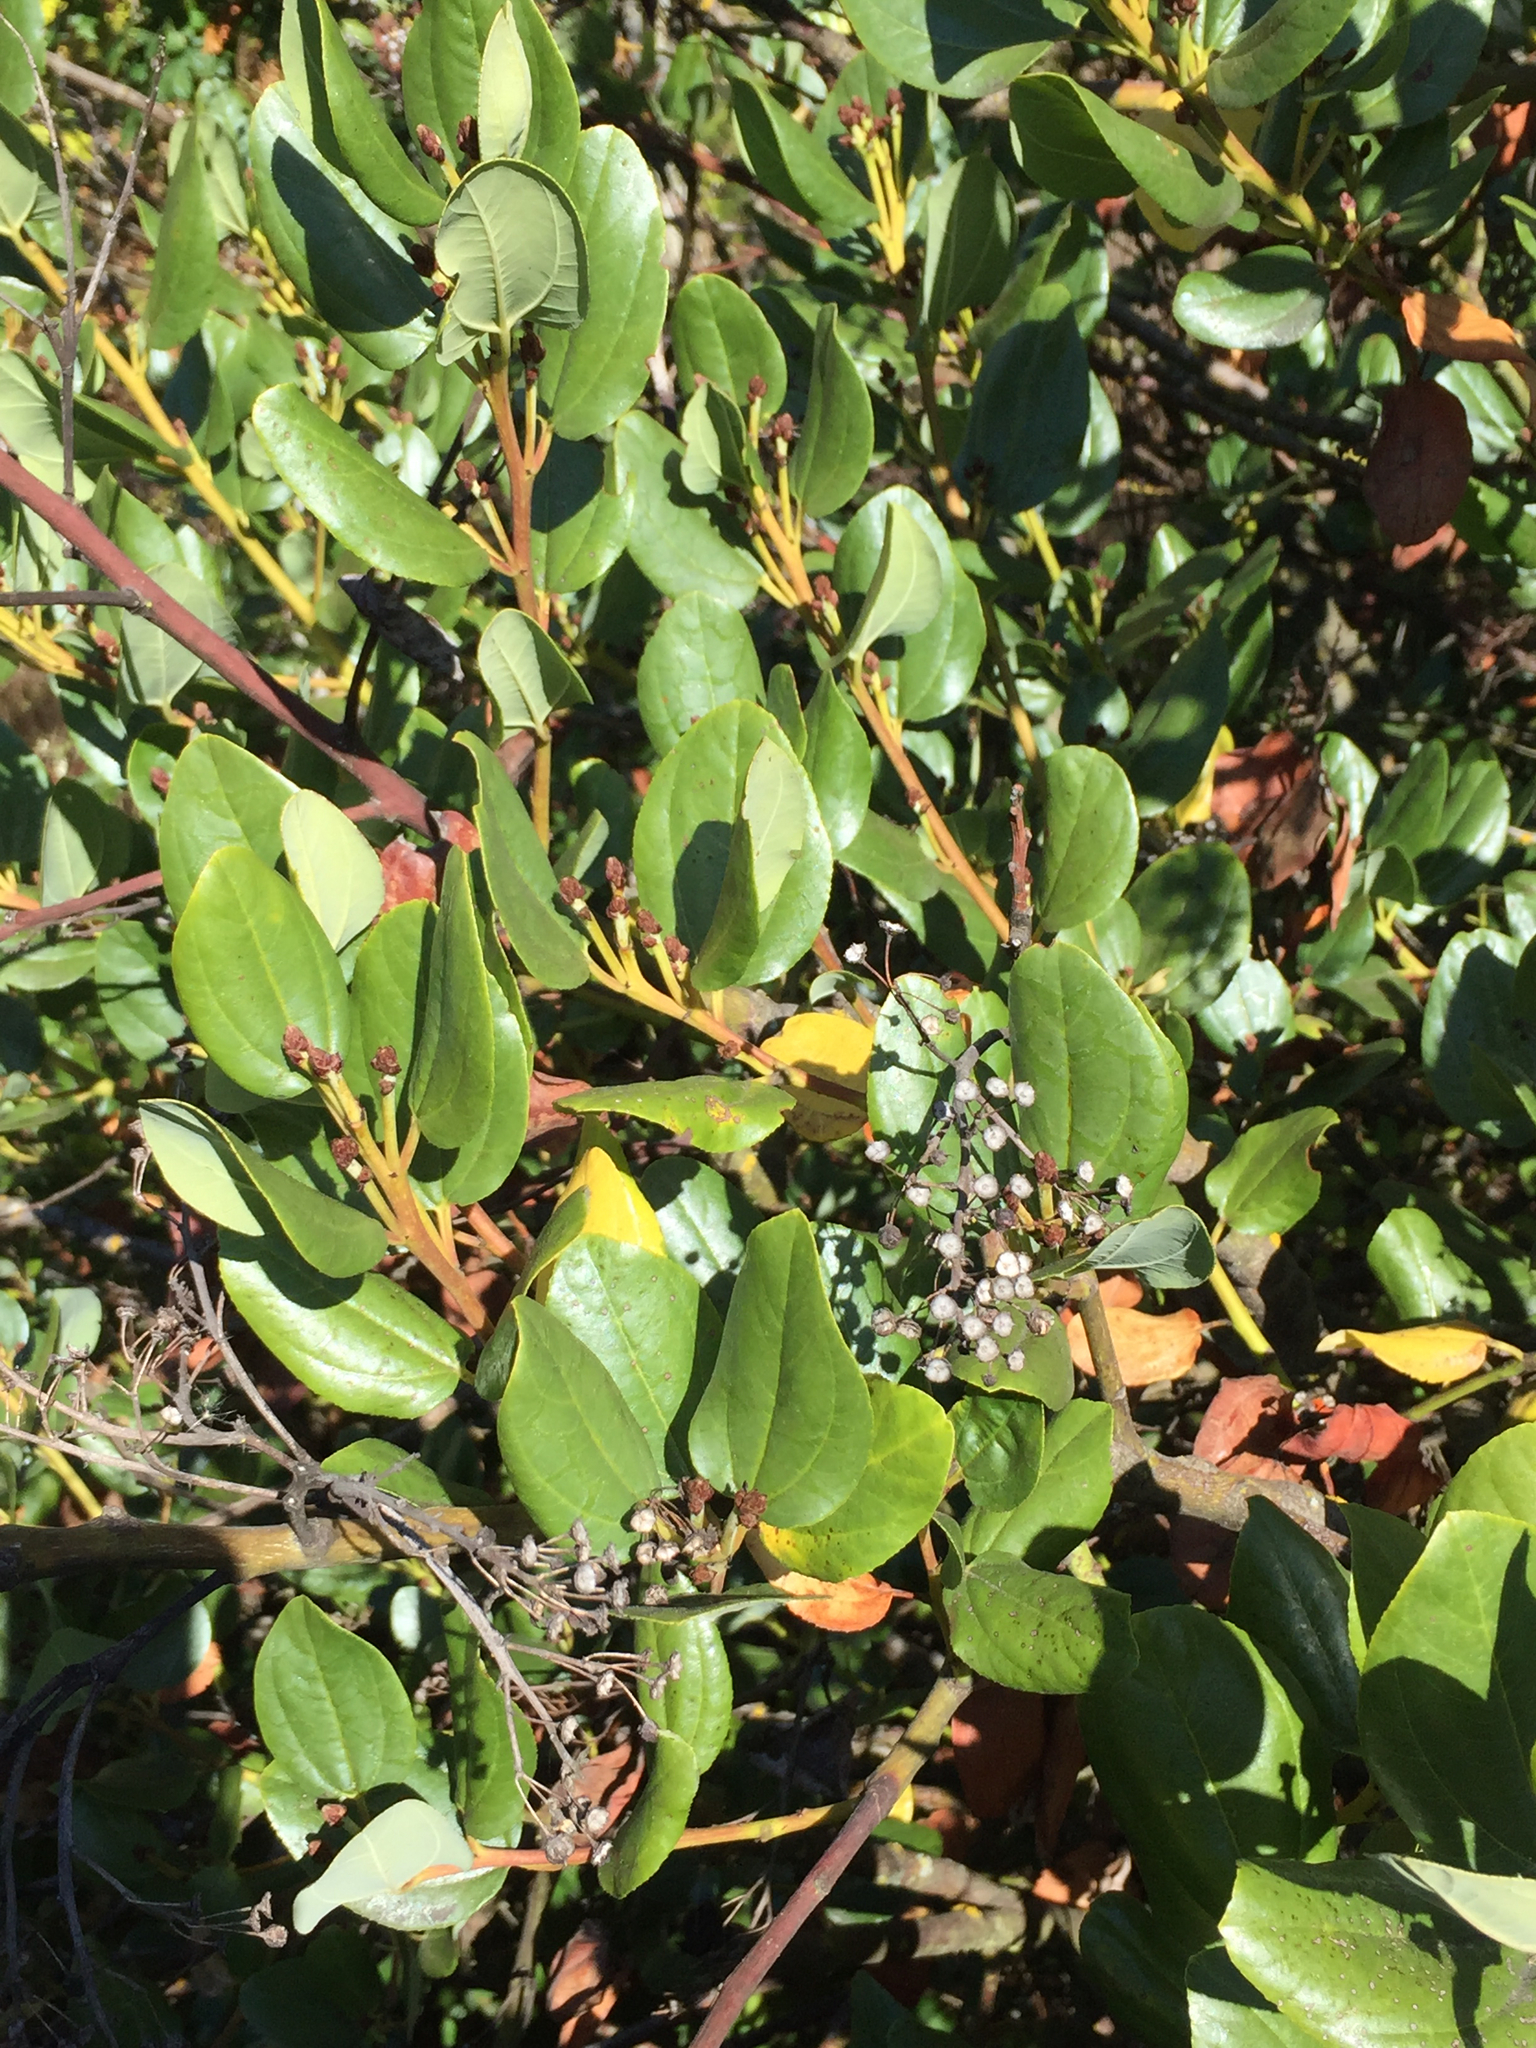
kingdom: Plantae
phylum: Tracheophyta
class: Magnoliopsida
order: Rosales
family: Rhamnaceae
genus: Ceanothus
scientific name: Ceanothus velutinus
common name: Snowbrush
